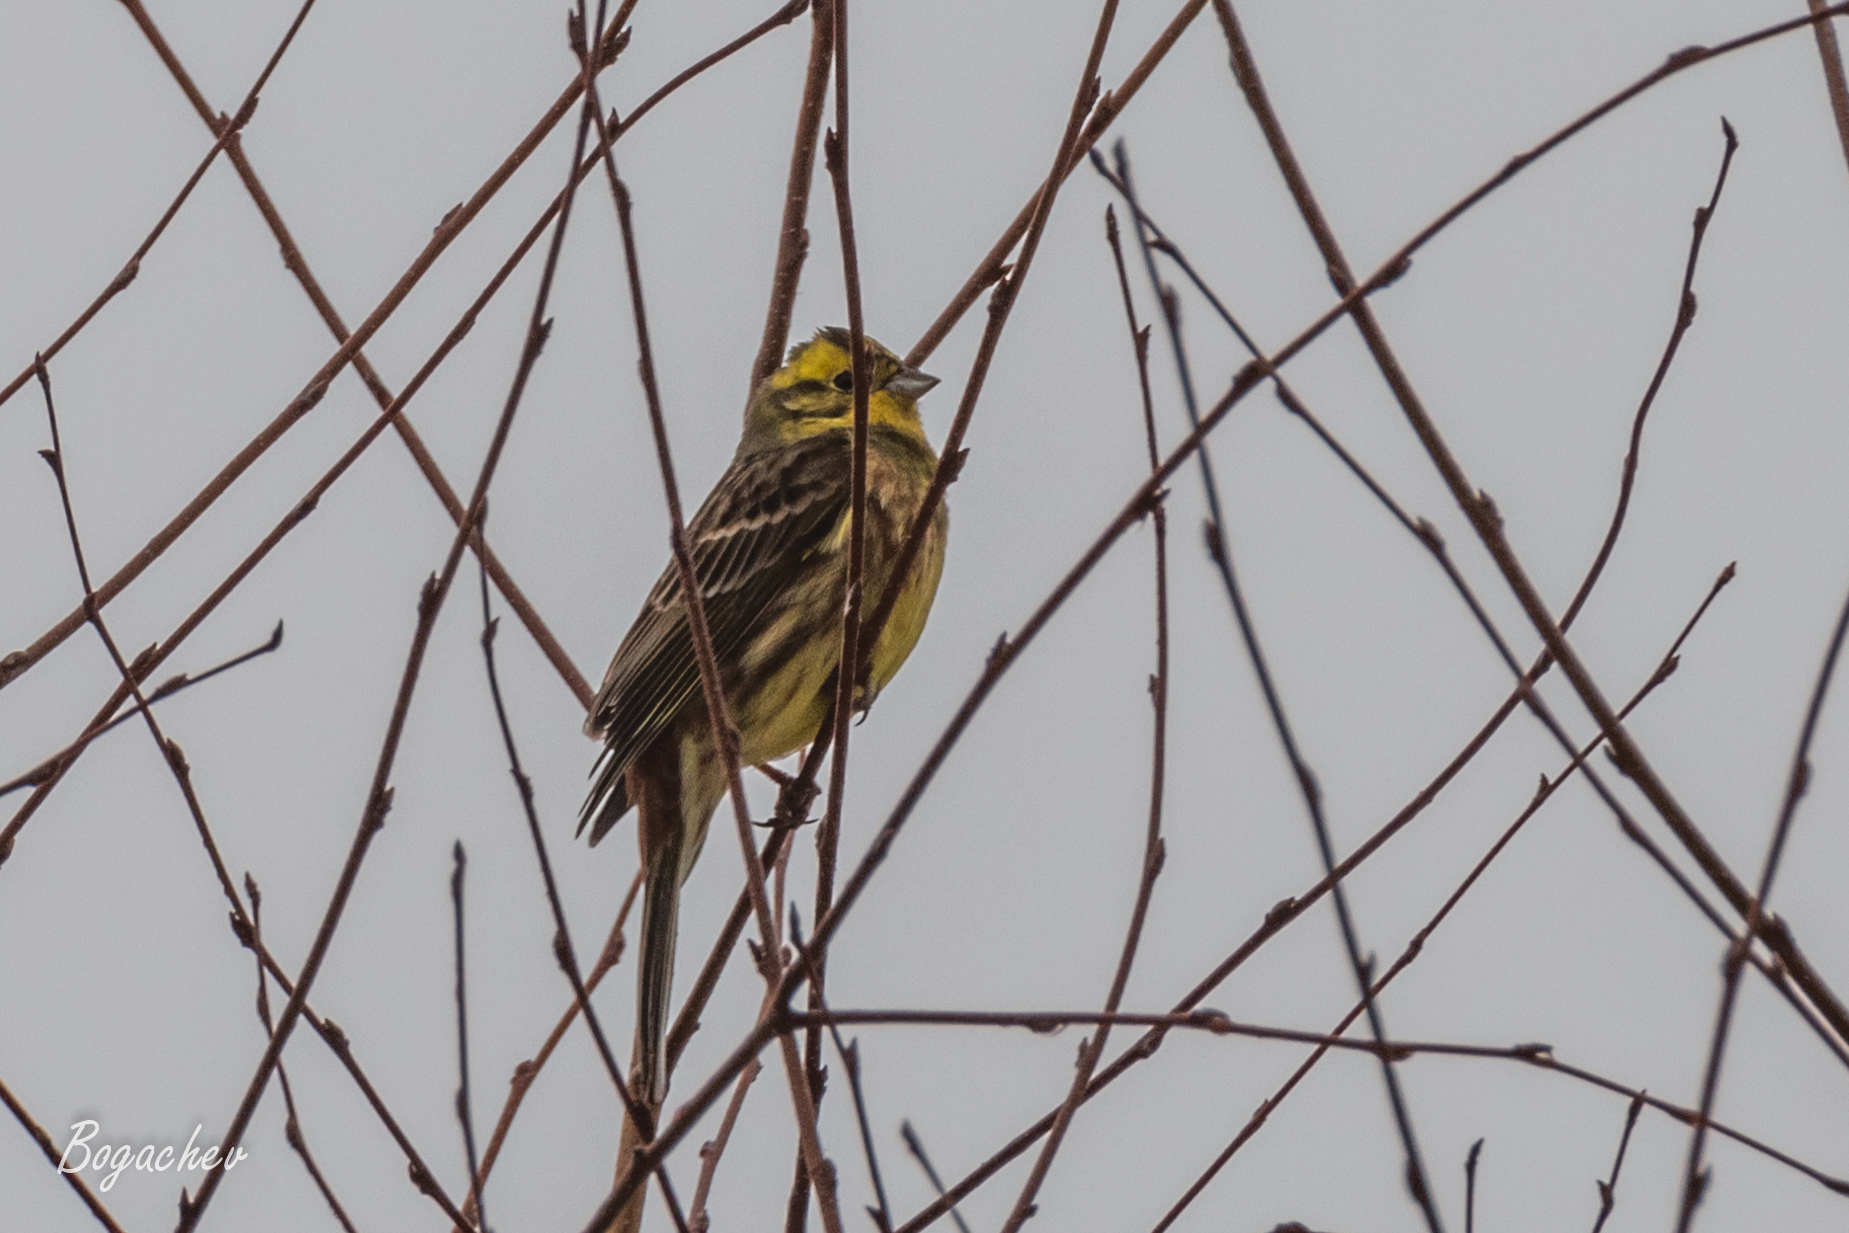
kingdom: Animalia
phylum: Chordata
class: Aves
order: Passeriformes
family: Emberizidae
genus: Emberiza
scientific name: Emberiza citrinella
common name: Yellowhammer
